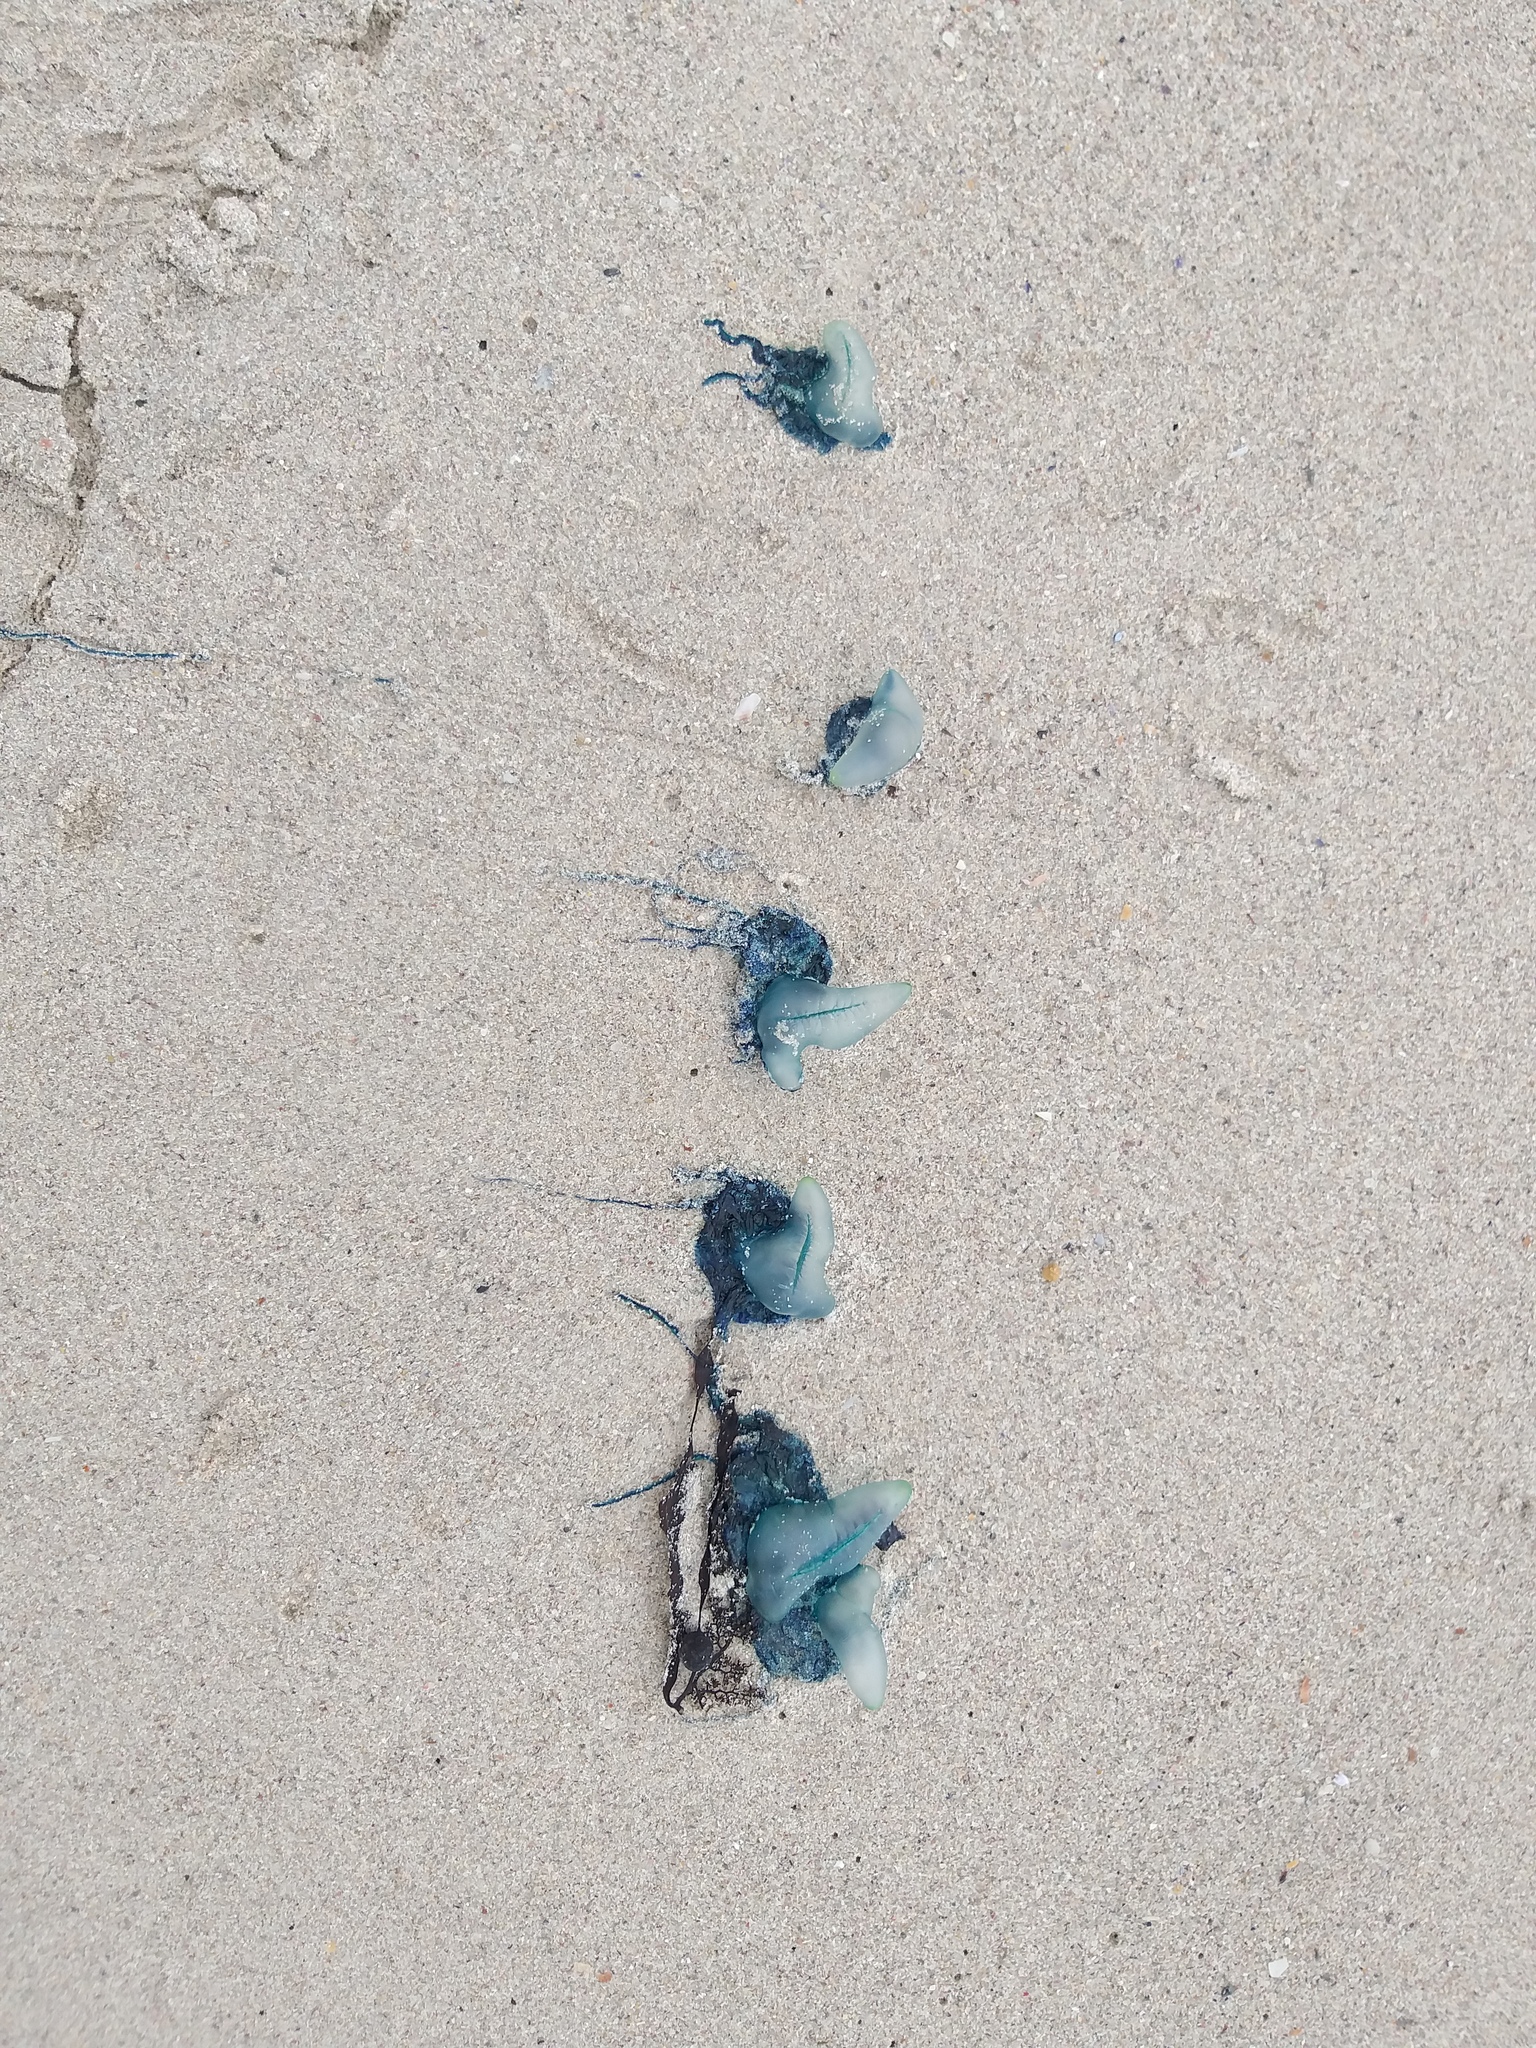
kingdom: Animalia
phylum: Cnidaria
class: Hydrozoa
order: Siphonophorae
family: Physaliidae
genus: Physalia
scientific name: Physalia physalis
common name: Portuguese man-of-war
